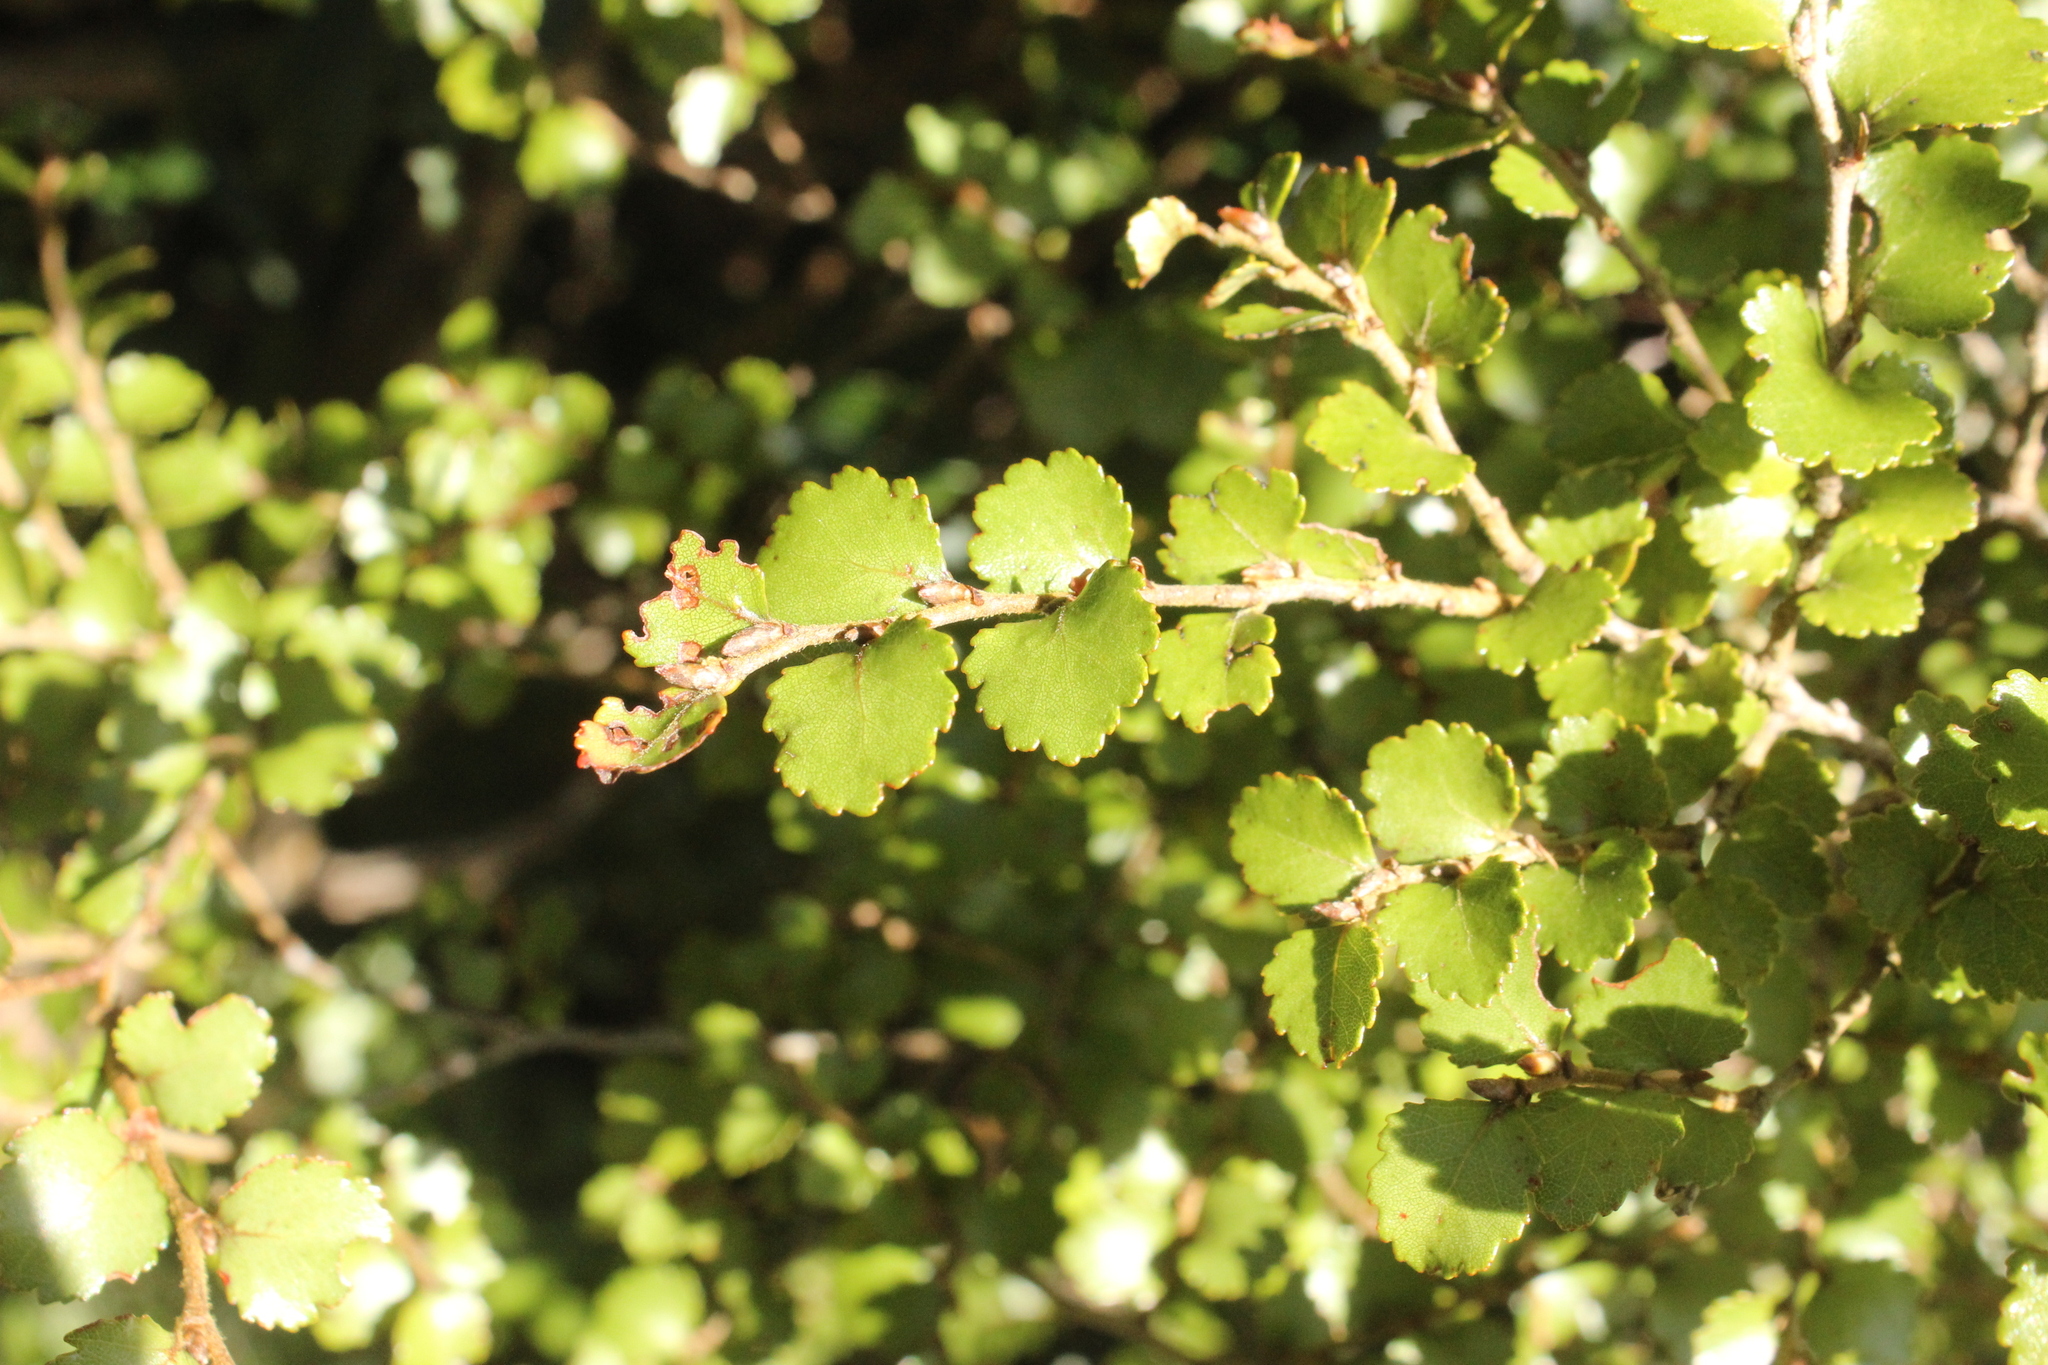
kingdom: Plantae
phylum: Tracheophyta
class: Magnoliopsida
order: Fagales
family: Nothofagaceae
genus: Nothofagus
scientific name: Nothofagus menziesii
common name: Silver beech
